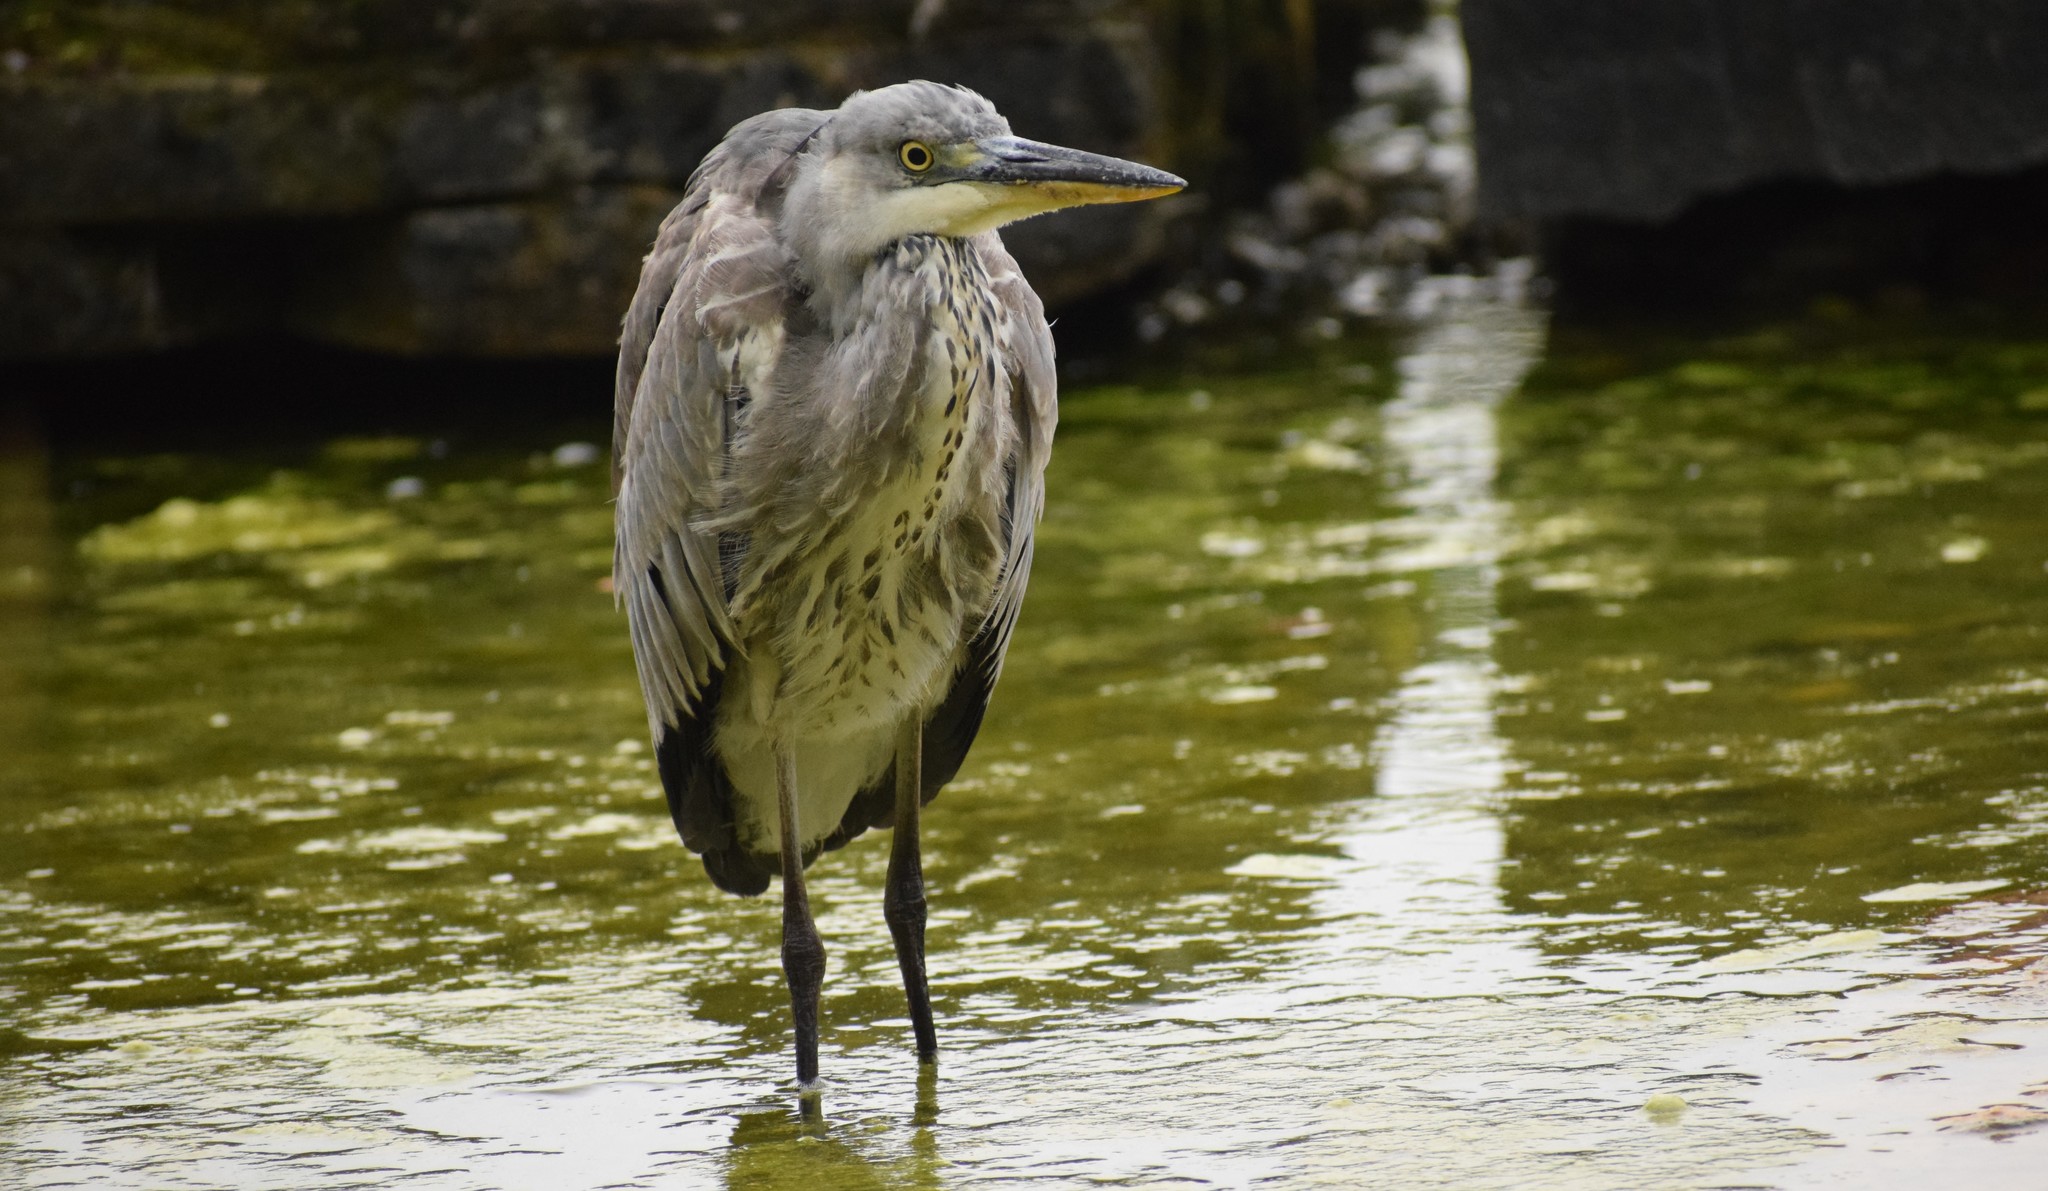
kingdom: Animalia
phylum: Chordata
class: Aves
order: Pelecaniformes
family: Ardeidae
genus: Ardea
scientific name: Ardea cinerea
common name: Grey heron
